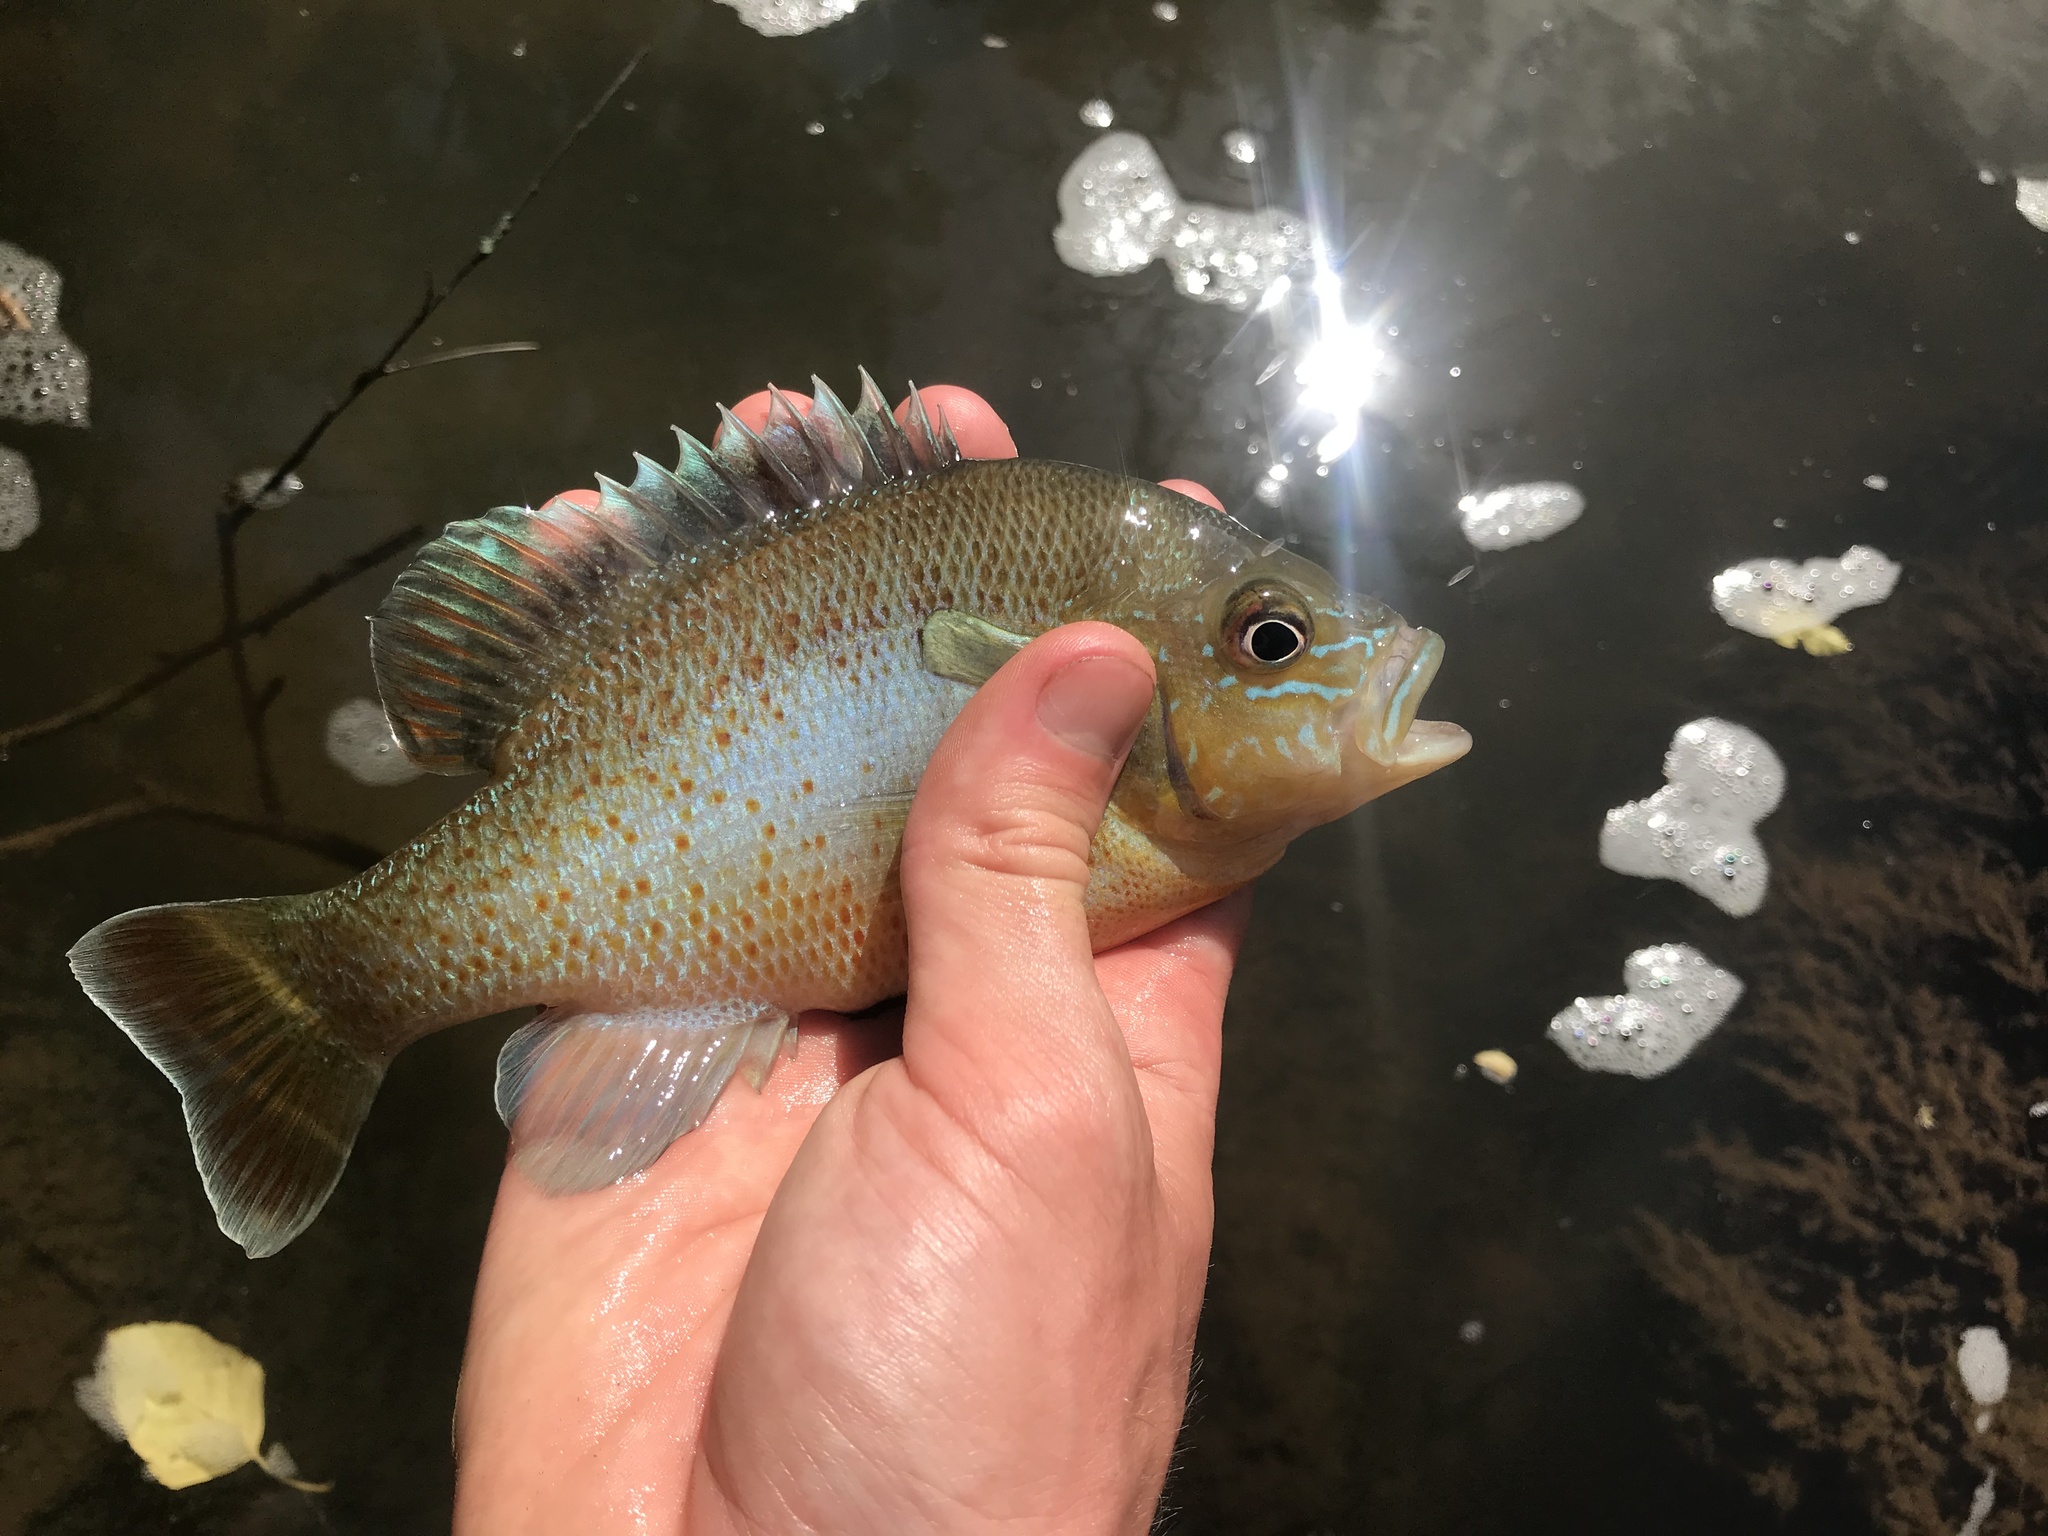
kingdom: Animalia
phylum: Chordata
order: Perciformes
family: Centrarchidae
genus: Lepomis
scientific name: Lepomis auritus
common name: Redbreast sunfish
